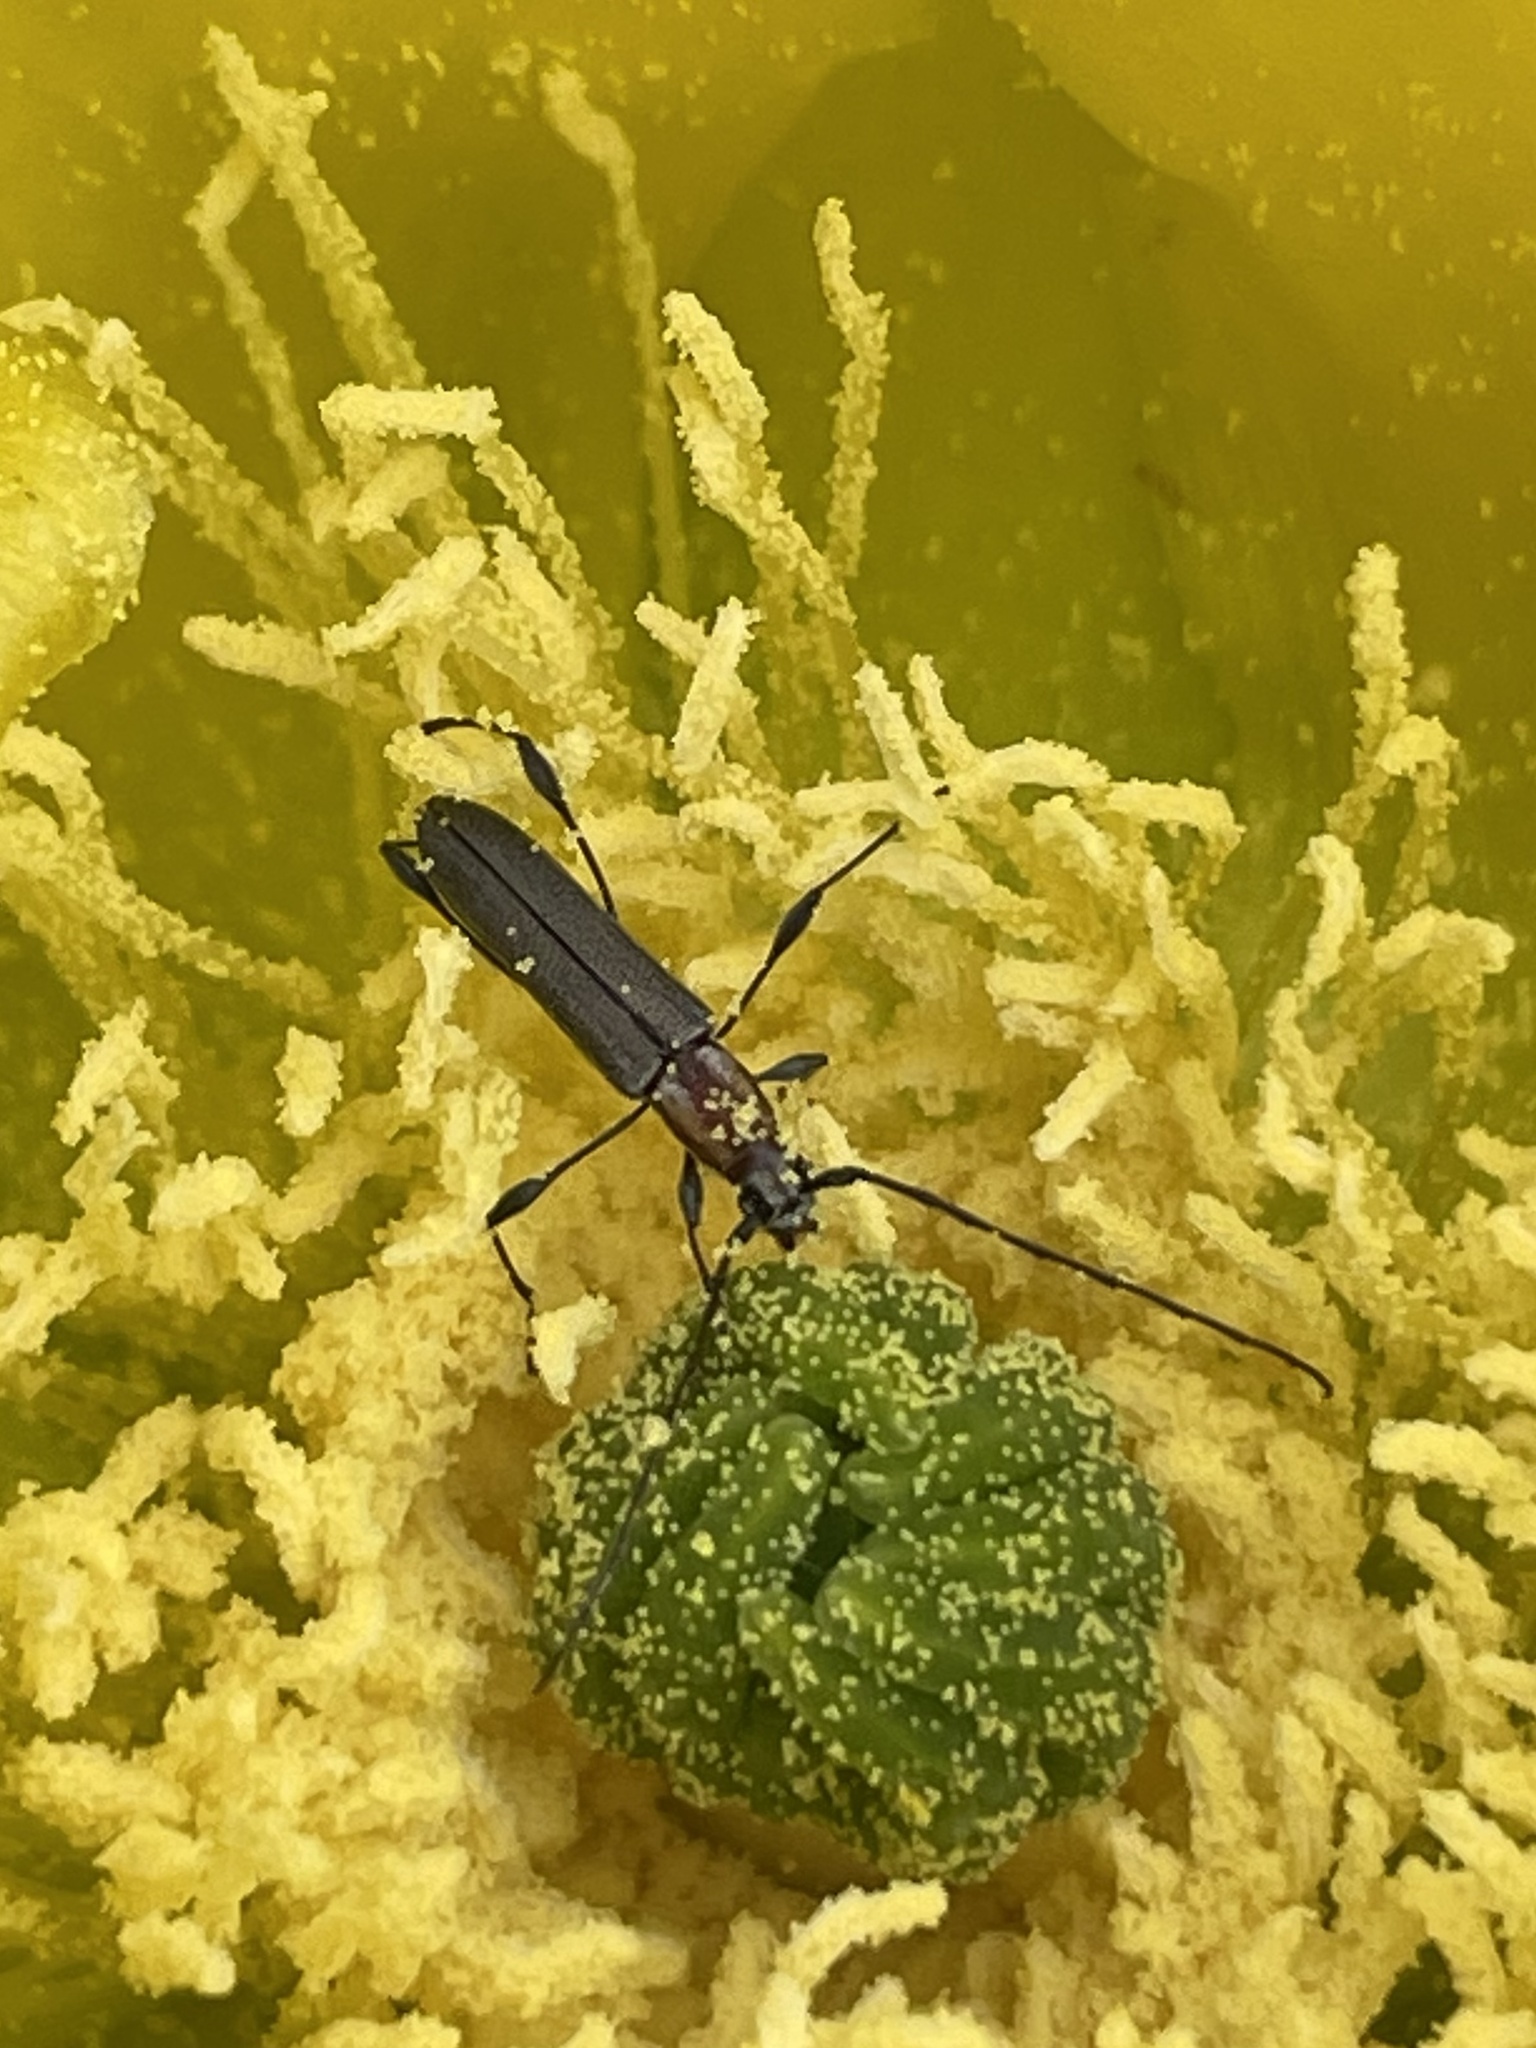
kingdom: Animalia
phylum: Arthropoda
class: Insecta
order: Coleoptera
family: Cerambycidae
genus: Rhopalophora
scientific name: Rhopalophora longipes
